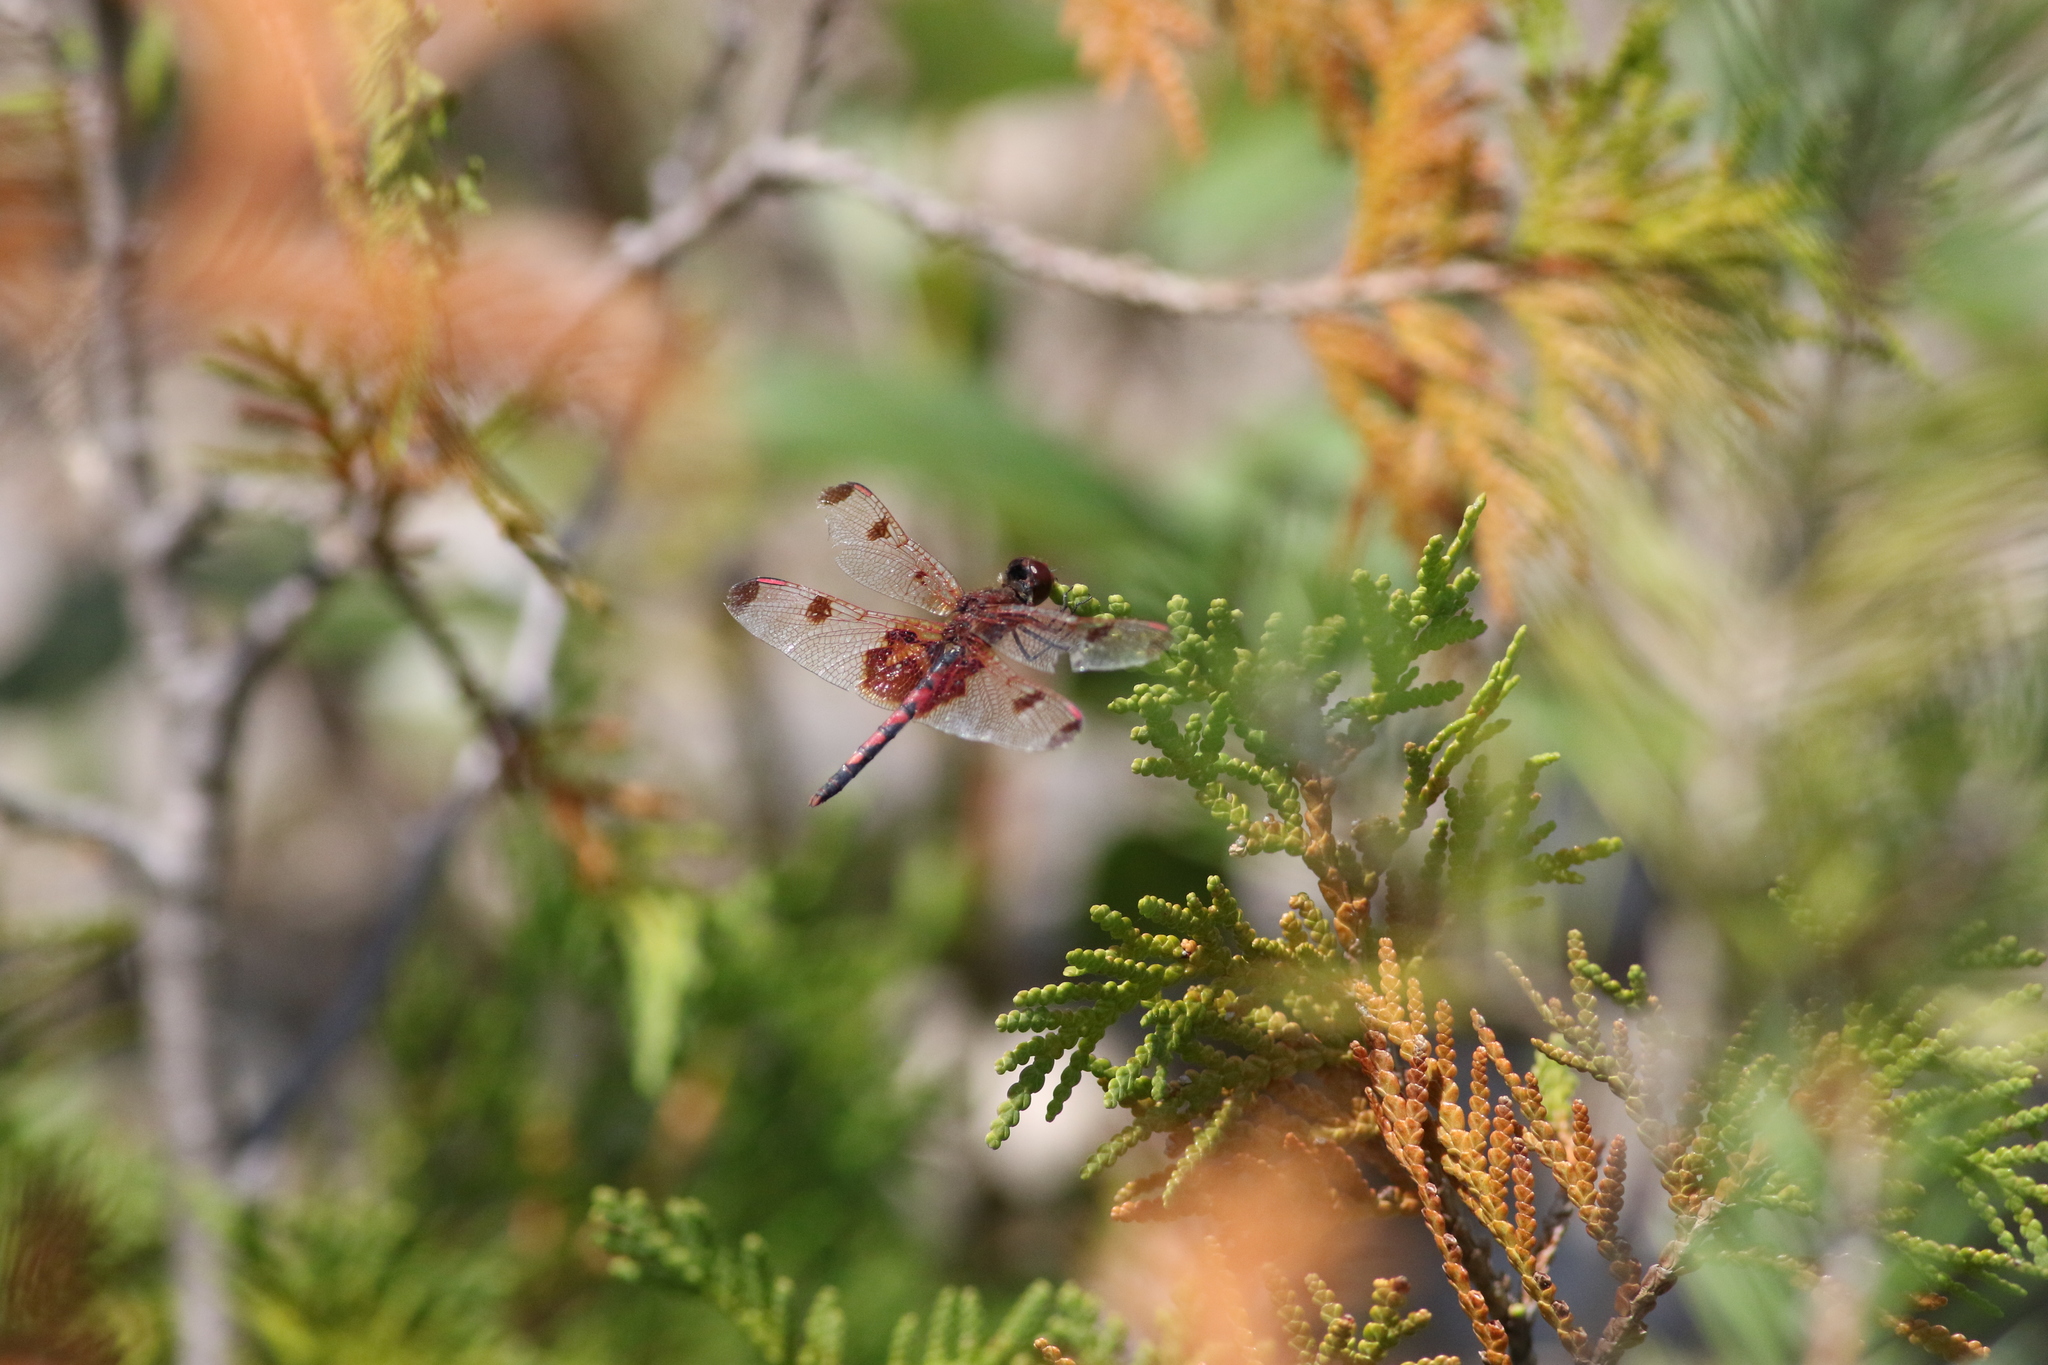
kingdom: Animalia
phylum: Arthropoda
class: Insecta
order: Odonata
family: Libellulidae
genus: Celithemis
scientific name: Celithemis elisa
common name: Calico pennant
